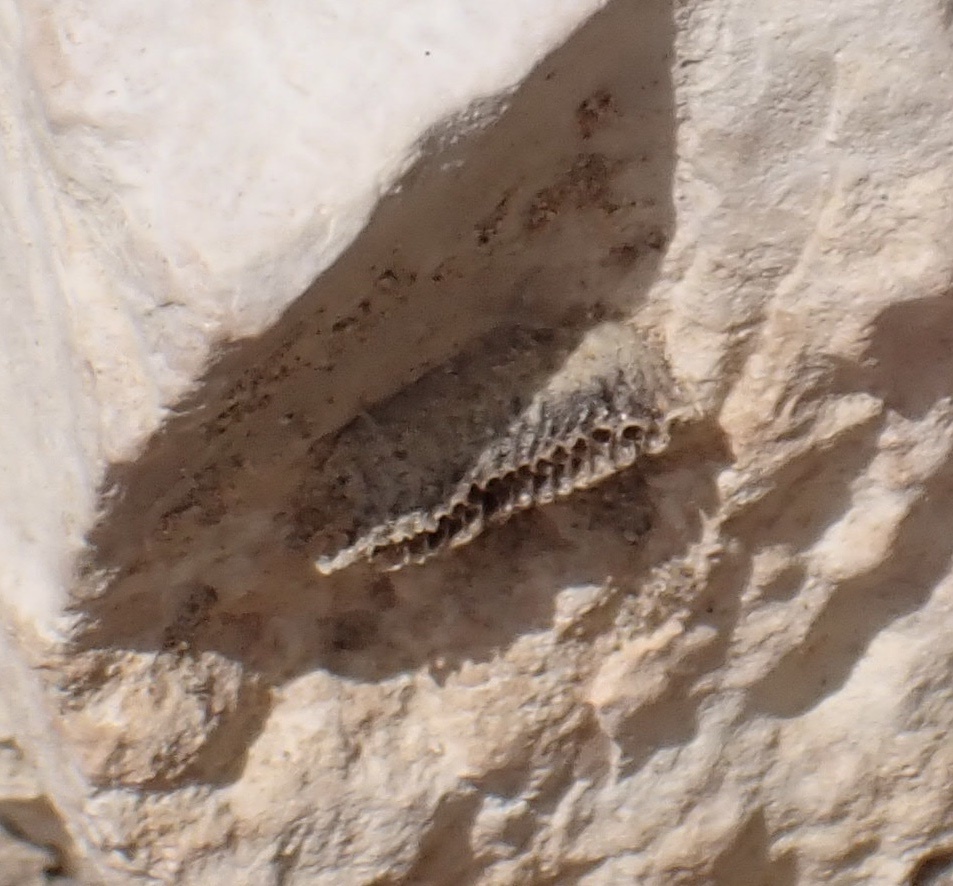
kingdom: Animalia
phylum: Arthropoda
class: Insecta
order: Mantodea
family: Eremiaphilidae
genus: Iris
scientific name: Iris oratoria
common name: Mediterranean mantis
